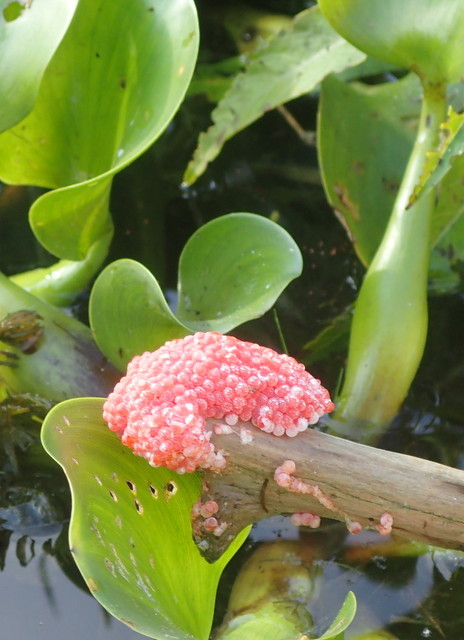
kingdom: Animalia
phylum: Mollusca
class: Gastropoda
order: Architaenioglossa
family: Ampullariidae
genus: Pomacea
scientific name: Pomacea maculata
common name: Giant applesnail
